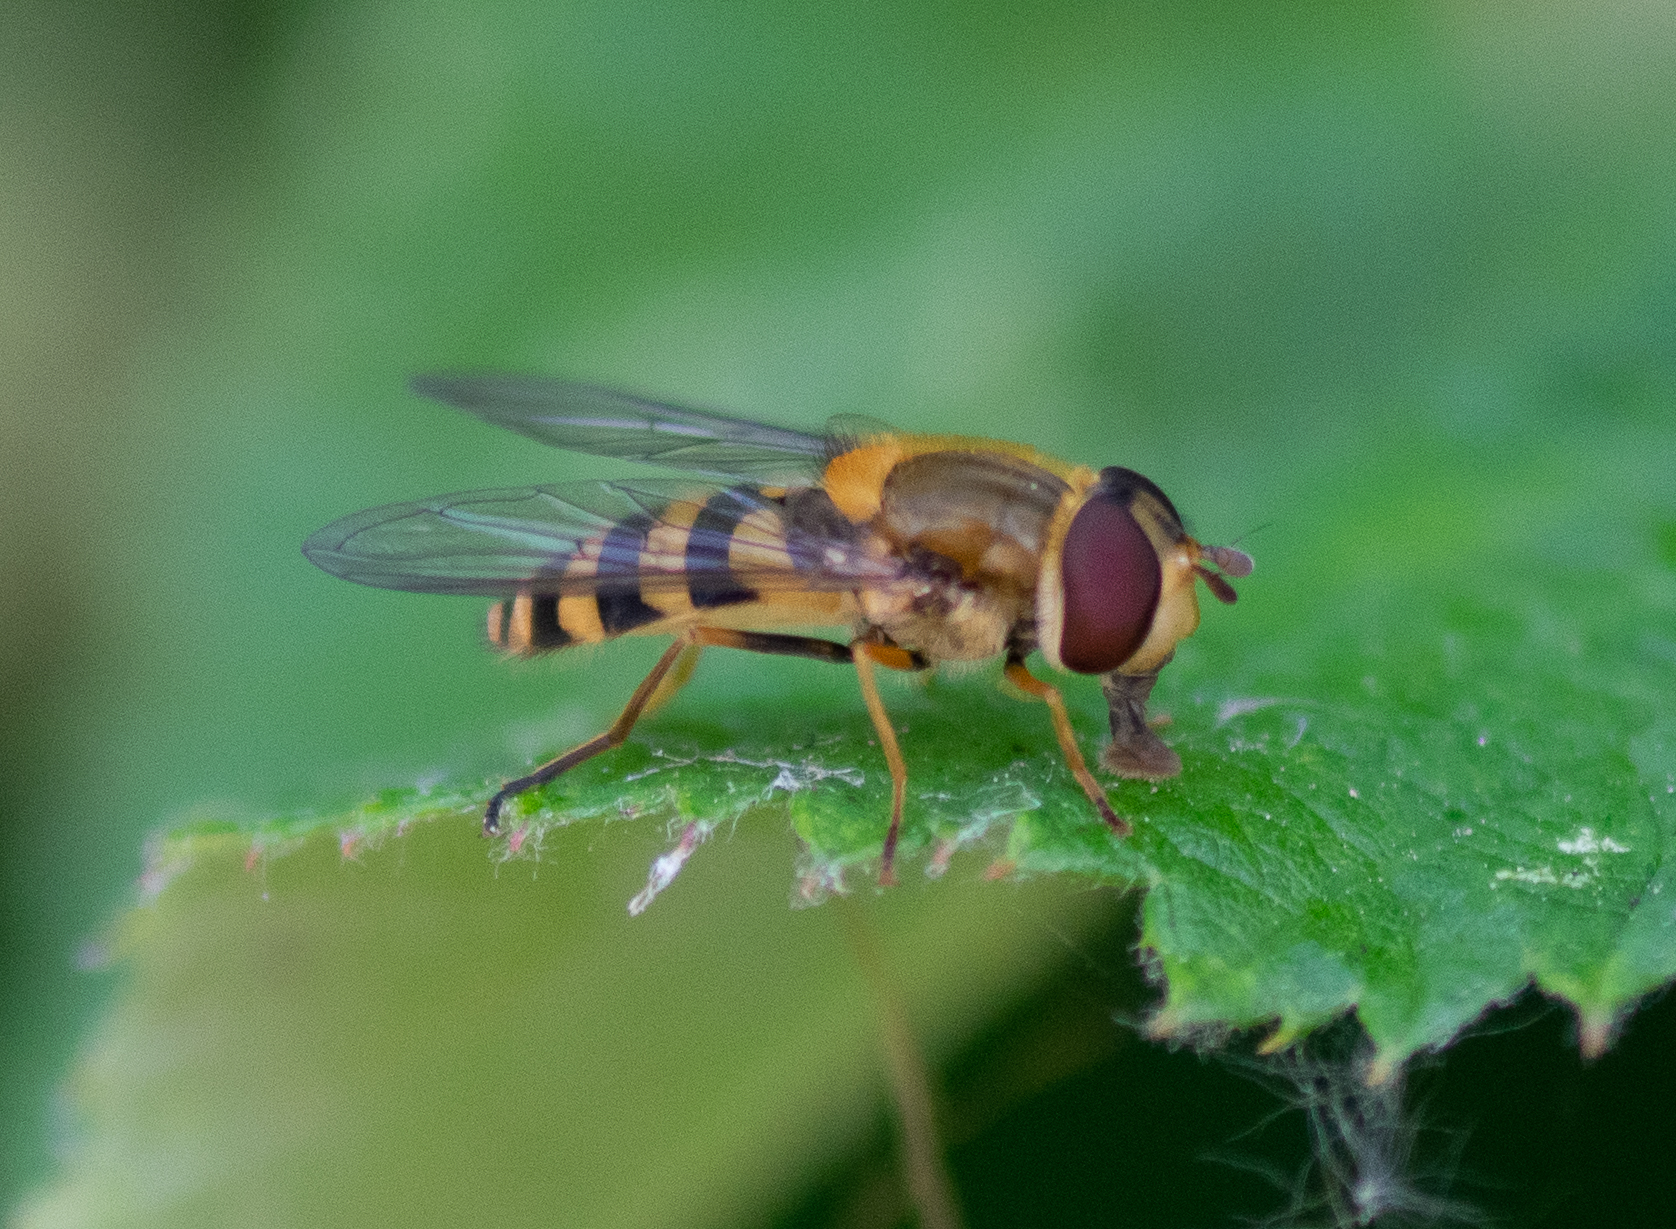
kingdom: Animalia
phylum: Arthropoda
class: Insecta
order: Diptera
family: Syrphidae
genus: Syrphus
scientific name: Syrphus
